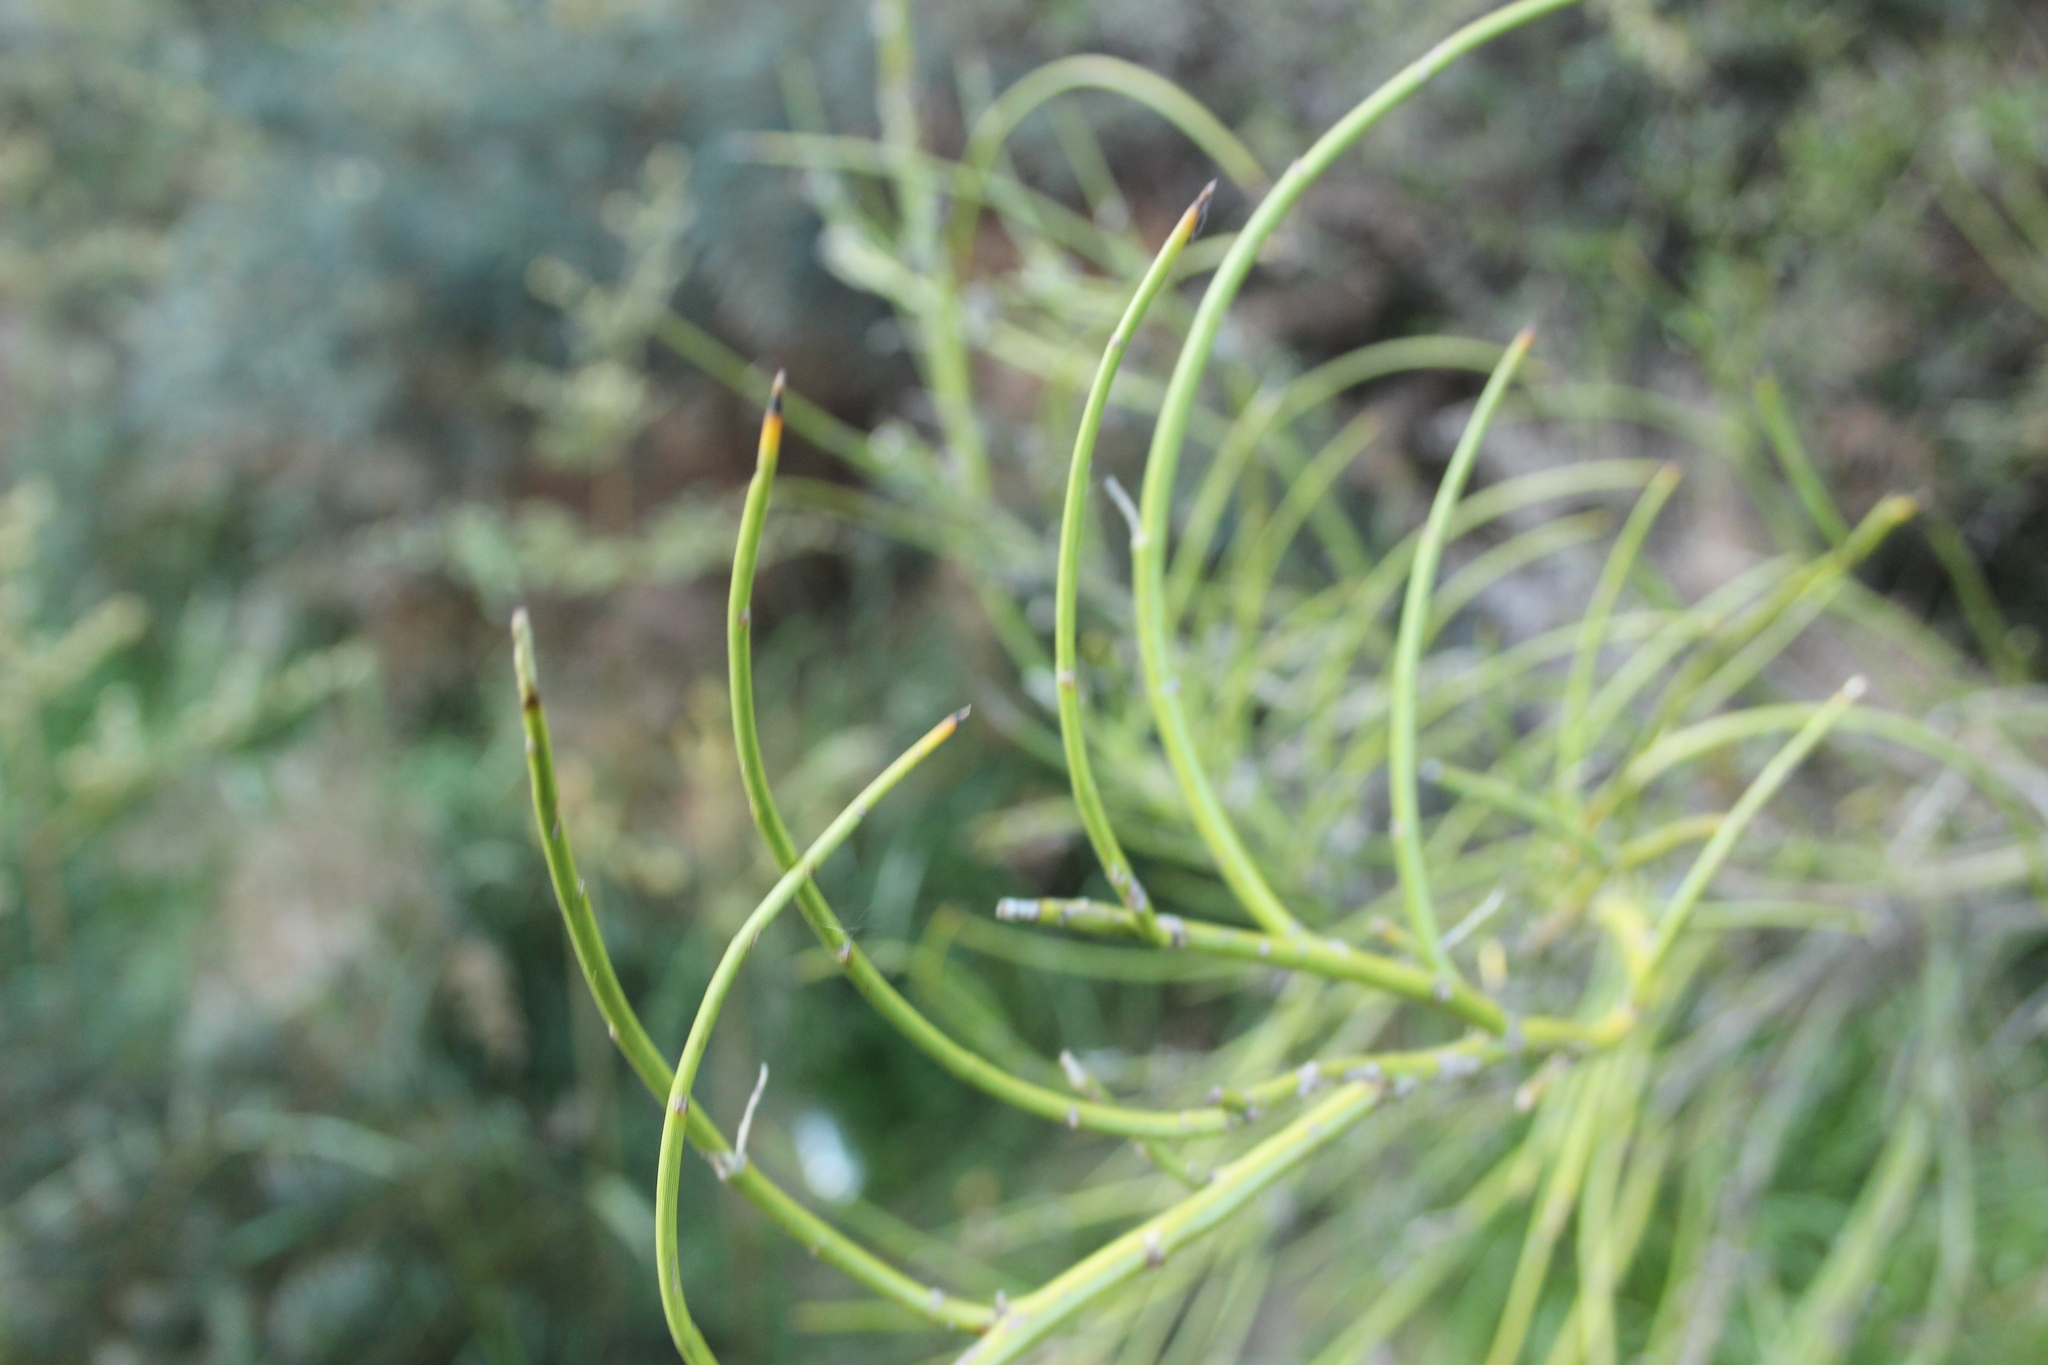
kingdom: Plantae
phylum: Tracheophyta
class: Magnoliopsida
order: Fabales
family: Fabaceae
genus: Carmichaelia
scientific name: Carmichaelia petriei
